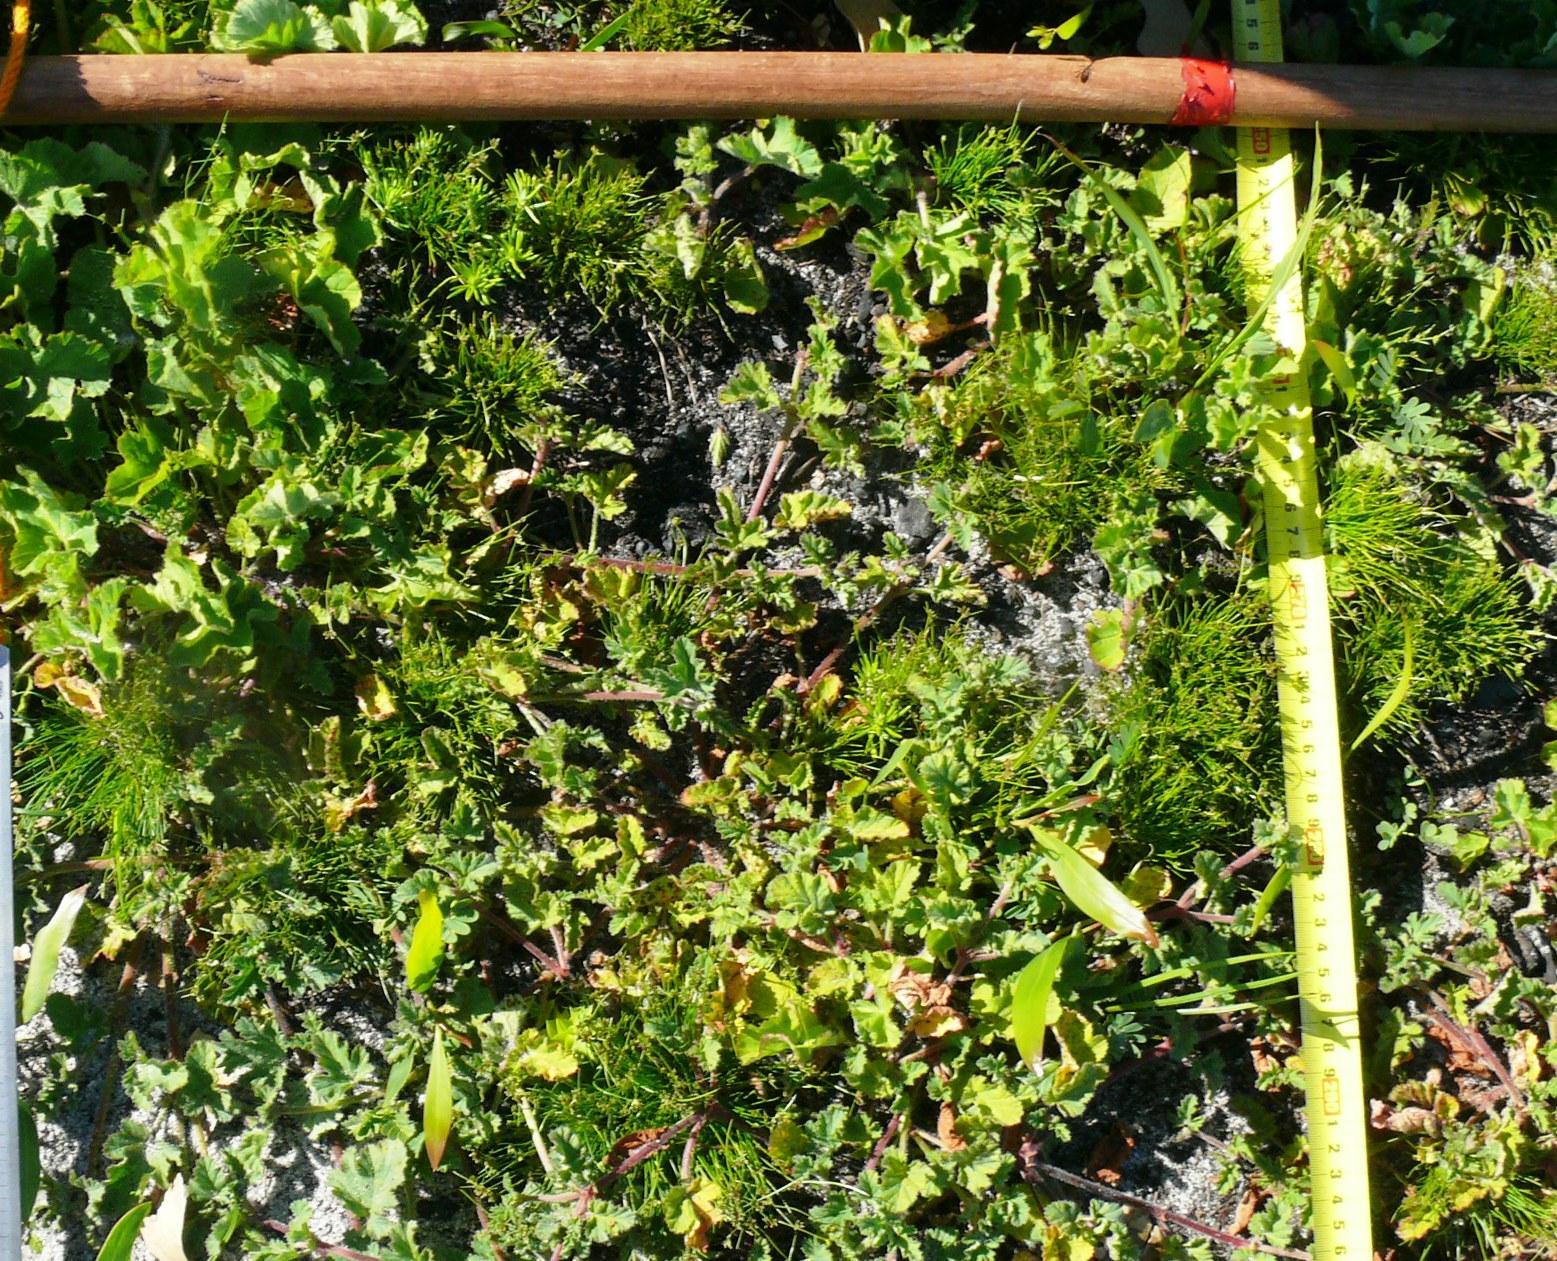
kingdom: Plantae
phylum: Tracheophyta
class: Liliopsida
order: Poales
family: Cyperaceae
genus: Isolepis
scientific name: Isolepis antarctica
